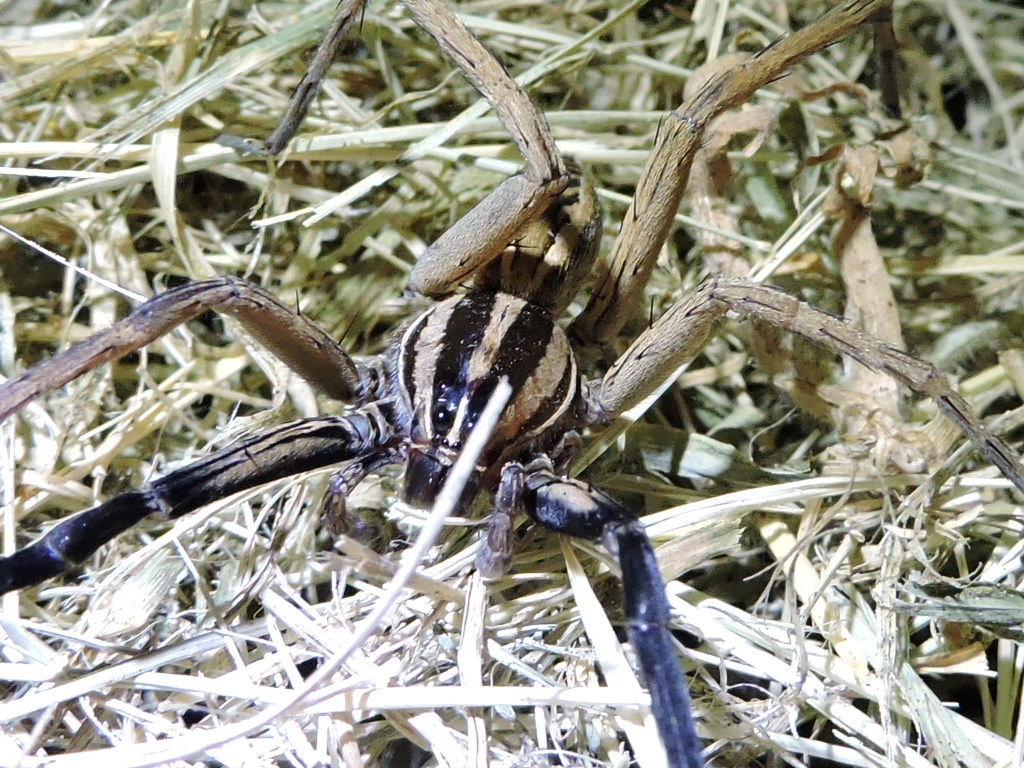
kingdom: Animalia
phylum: Arthropoda
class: Arachnida
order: Araneae
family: Lycosidae
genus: Rabidosa
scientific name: Rabidosa rabida
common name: Rabid wolf spider
